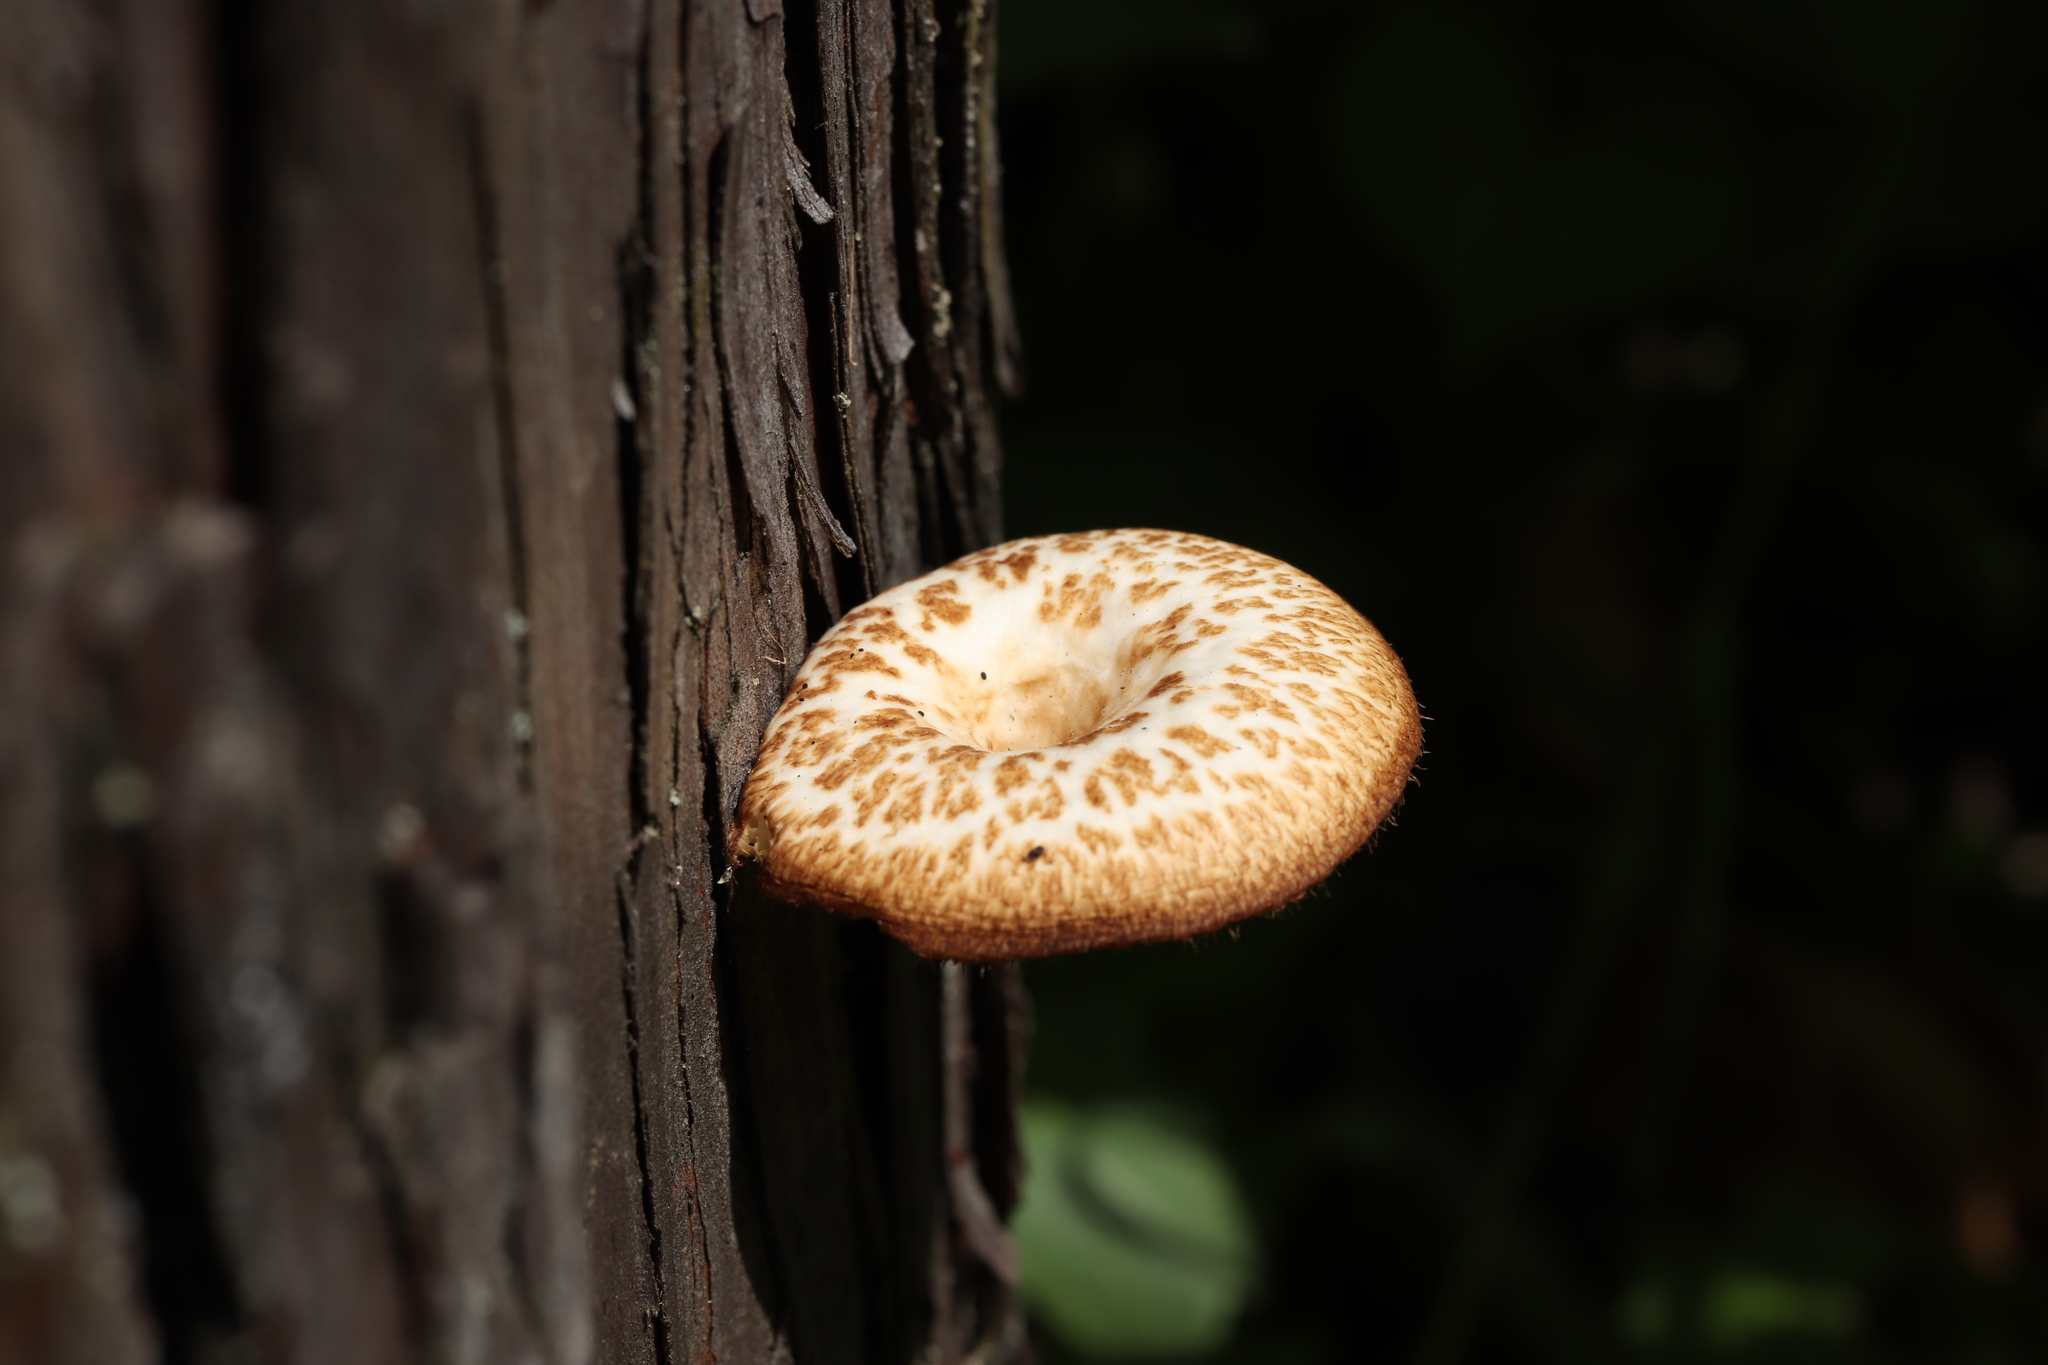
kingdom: Fungi
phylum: Basidiomycota
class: Agaricomycetes
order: Polyporales
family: Polyporaceae
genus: Lentinus
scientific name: Lentinus arcularius
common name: Spring polypore
